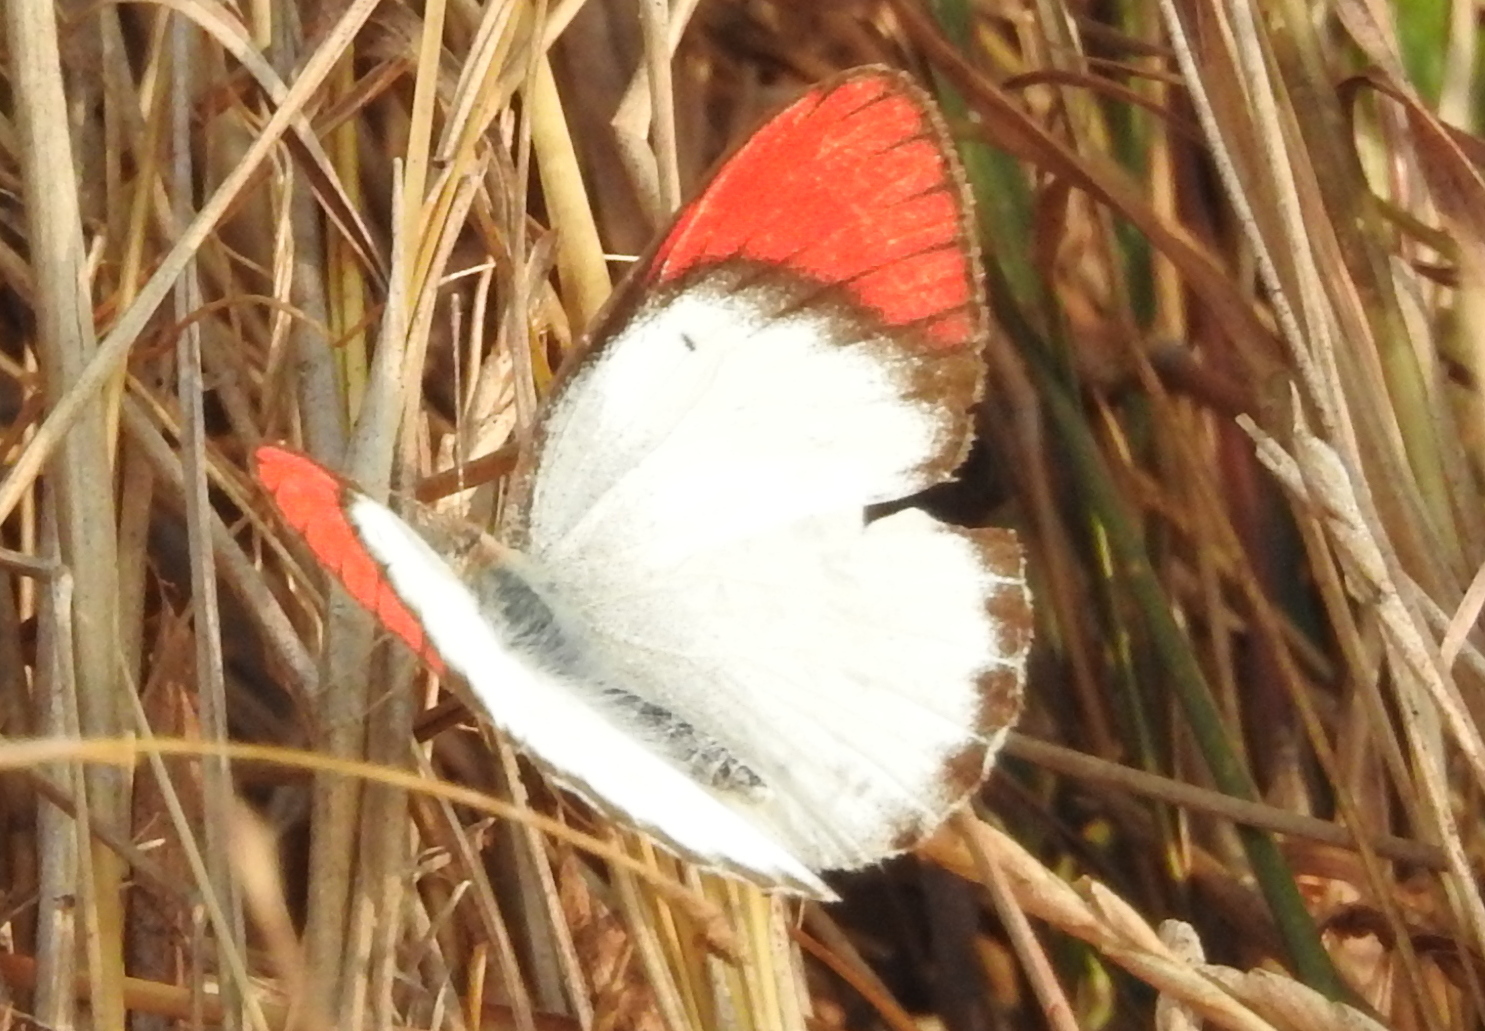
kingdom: Animalia
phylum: Arthropoda
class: Insecta
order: Lepidoptera
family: Pieridae
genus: Colotis
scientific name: Colotis danae
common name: Crimson tip
